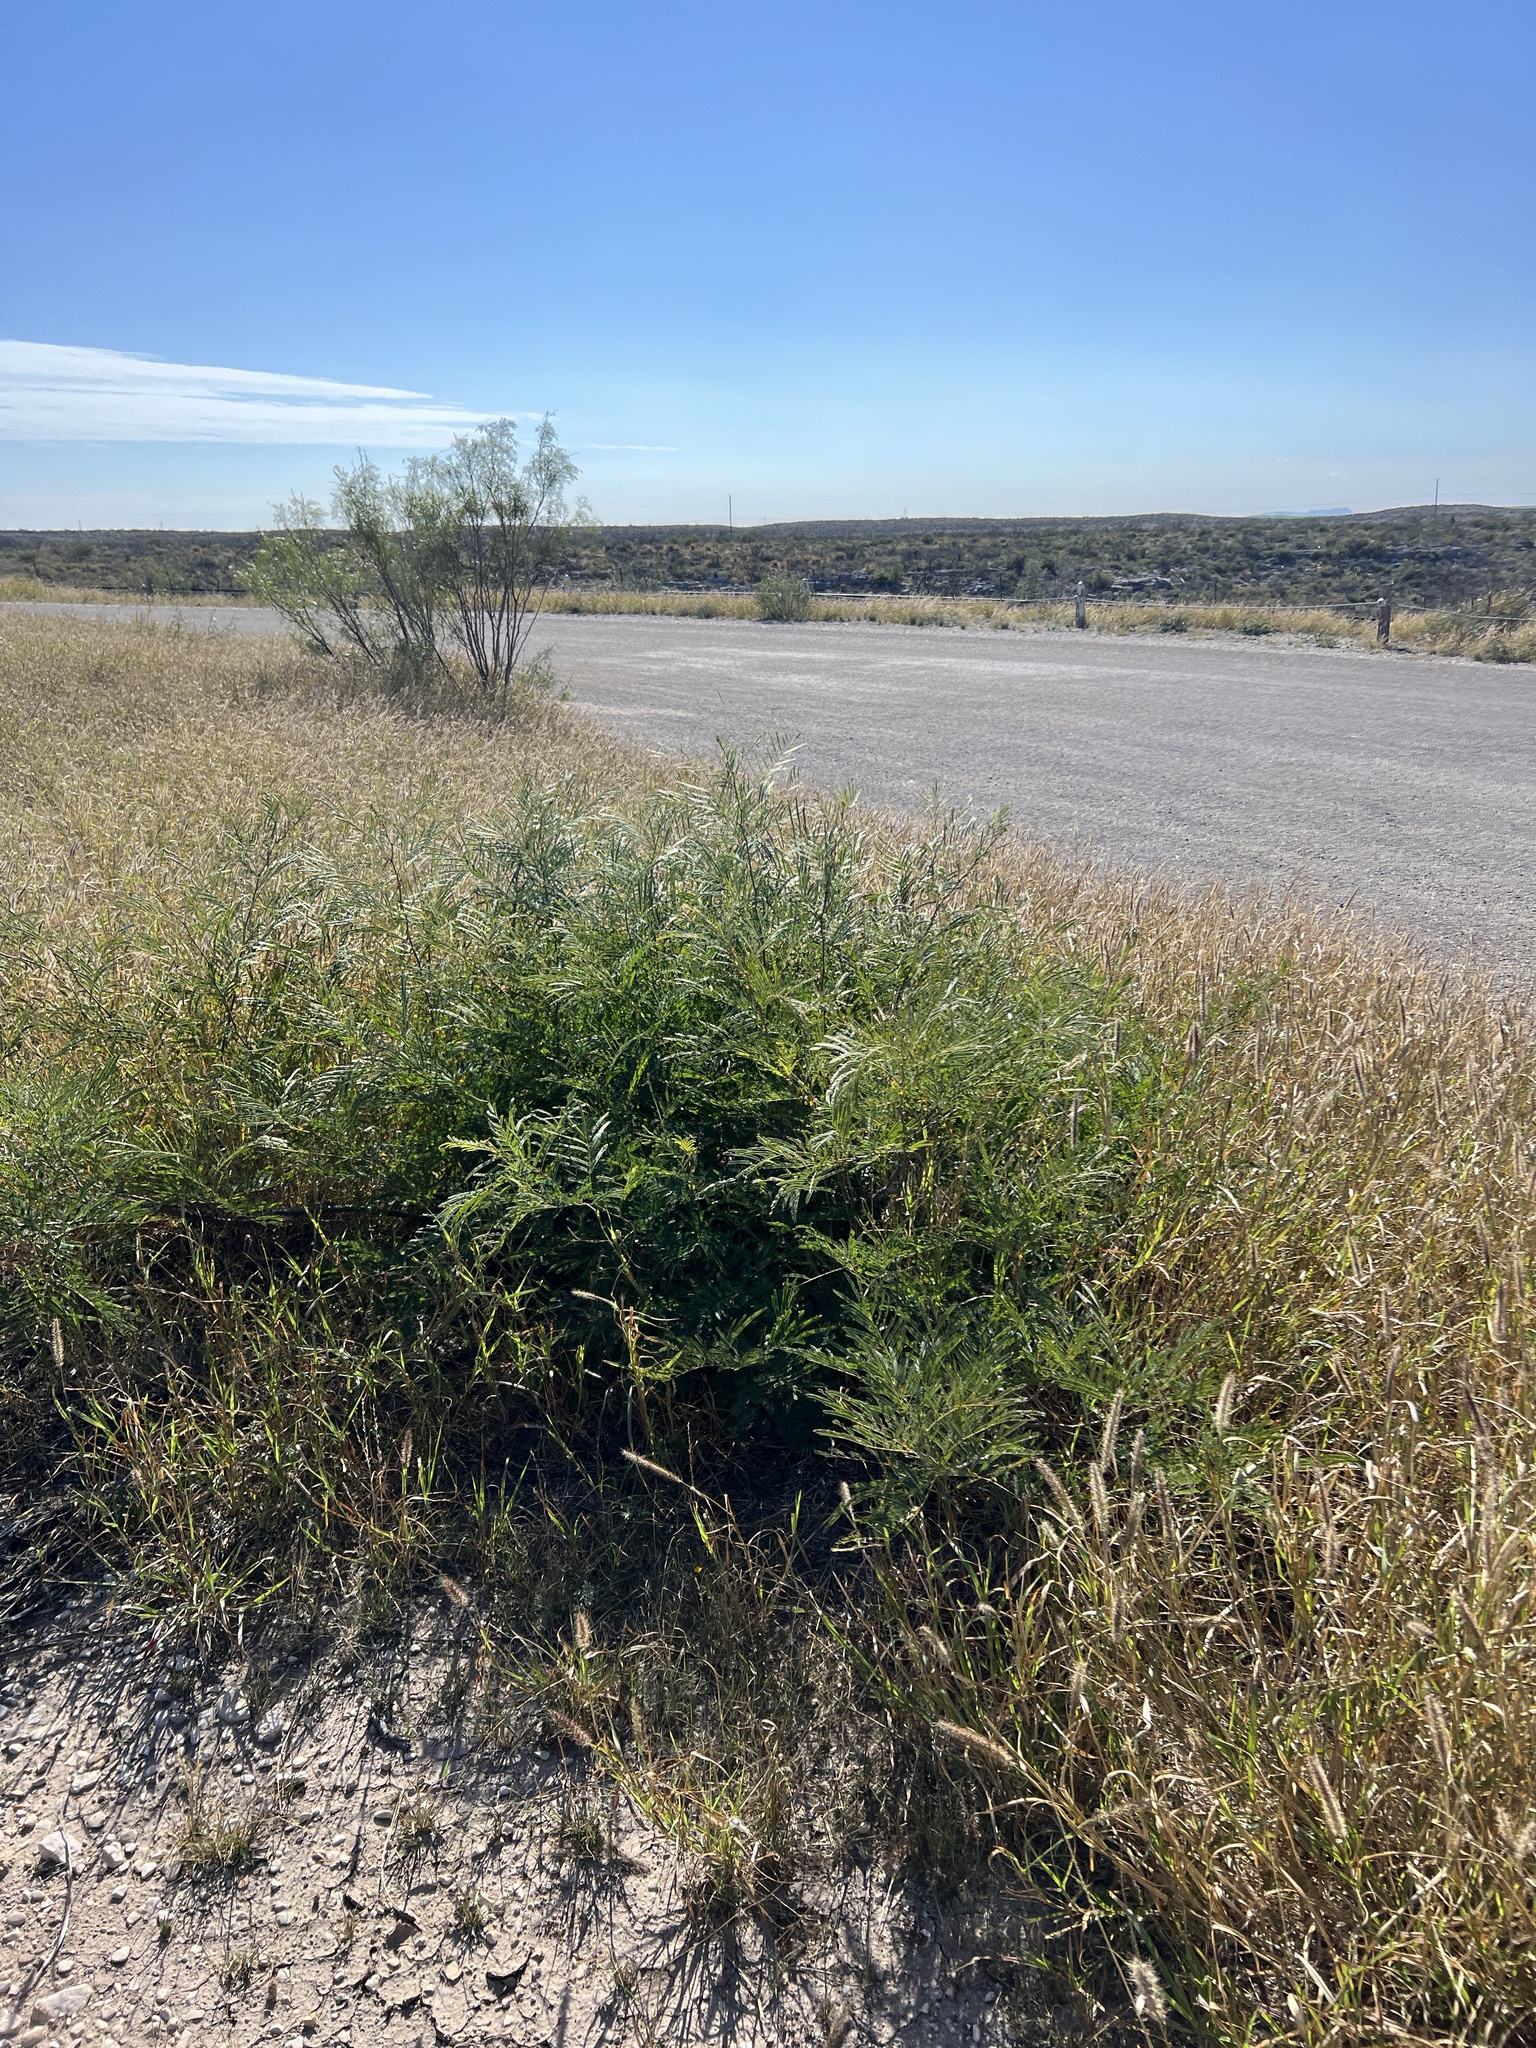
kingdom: Plantae
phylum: Tracheophyta
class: Magnoliopsida
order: Fabales
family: Fabaceae
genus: Senegalia
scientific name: Senegalia berlandieri
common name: Berlandier acacia
